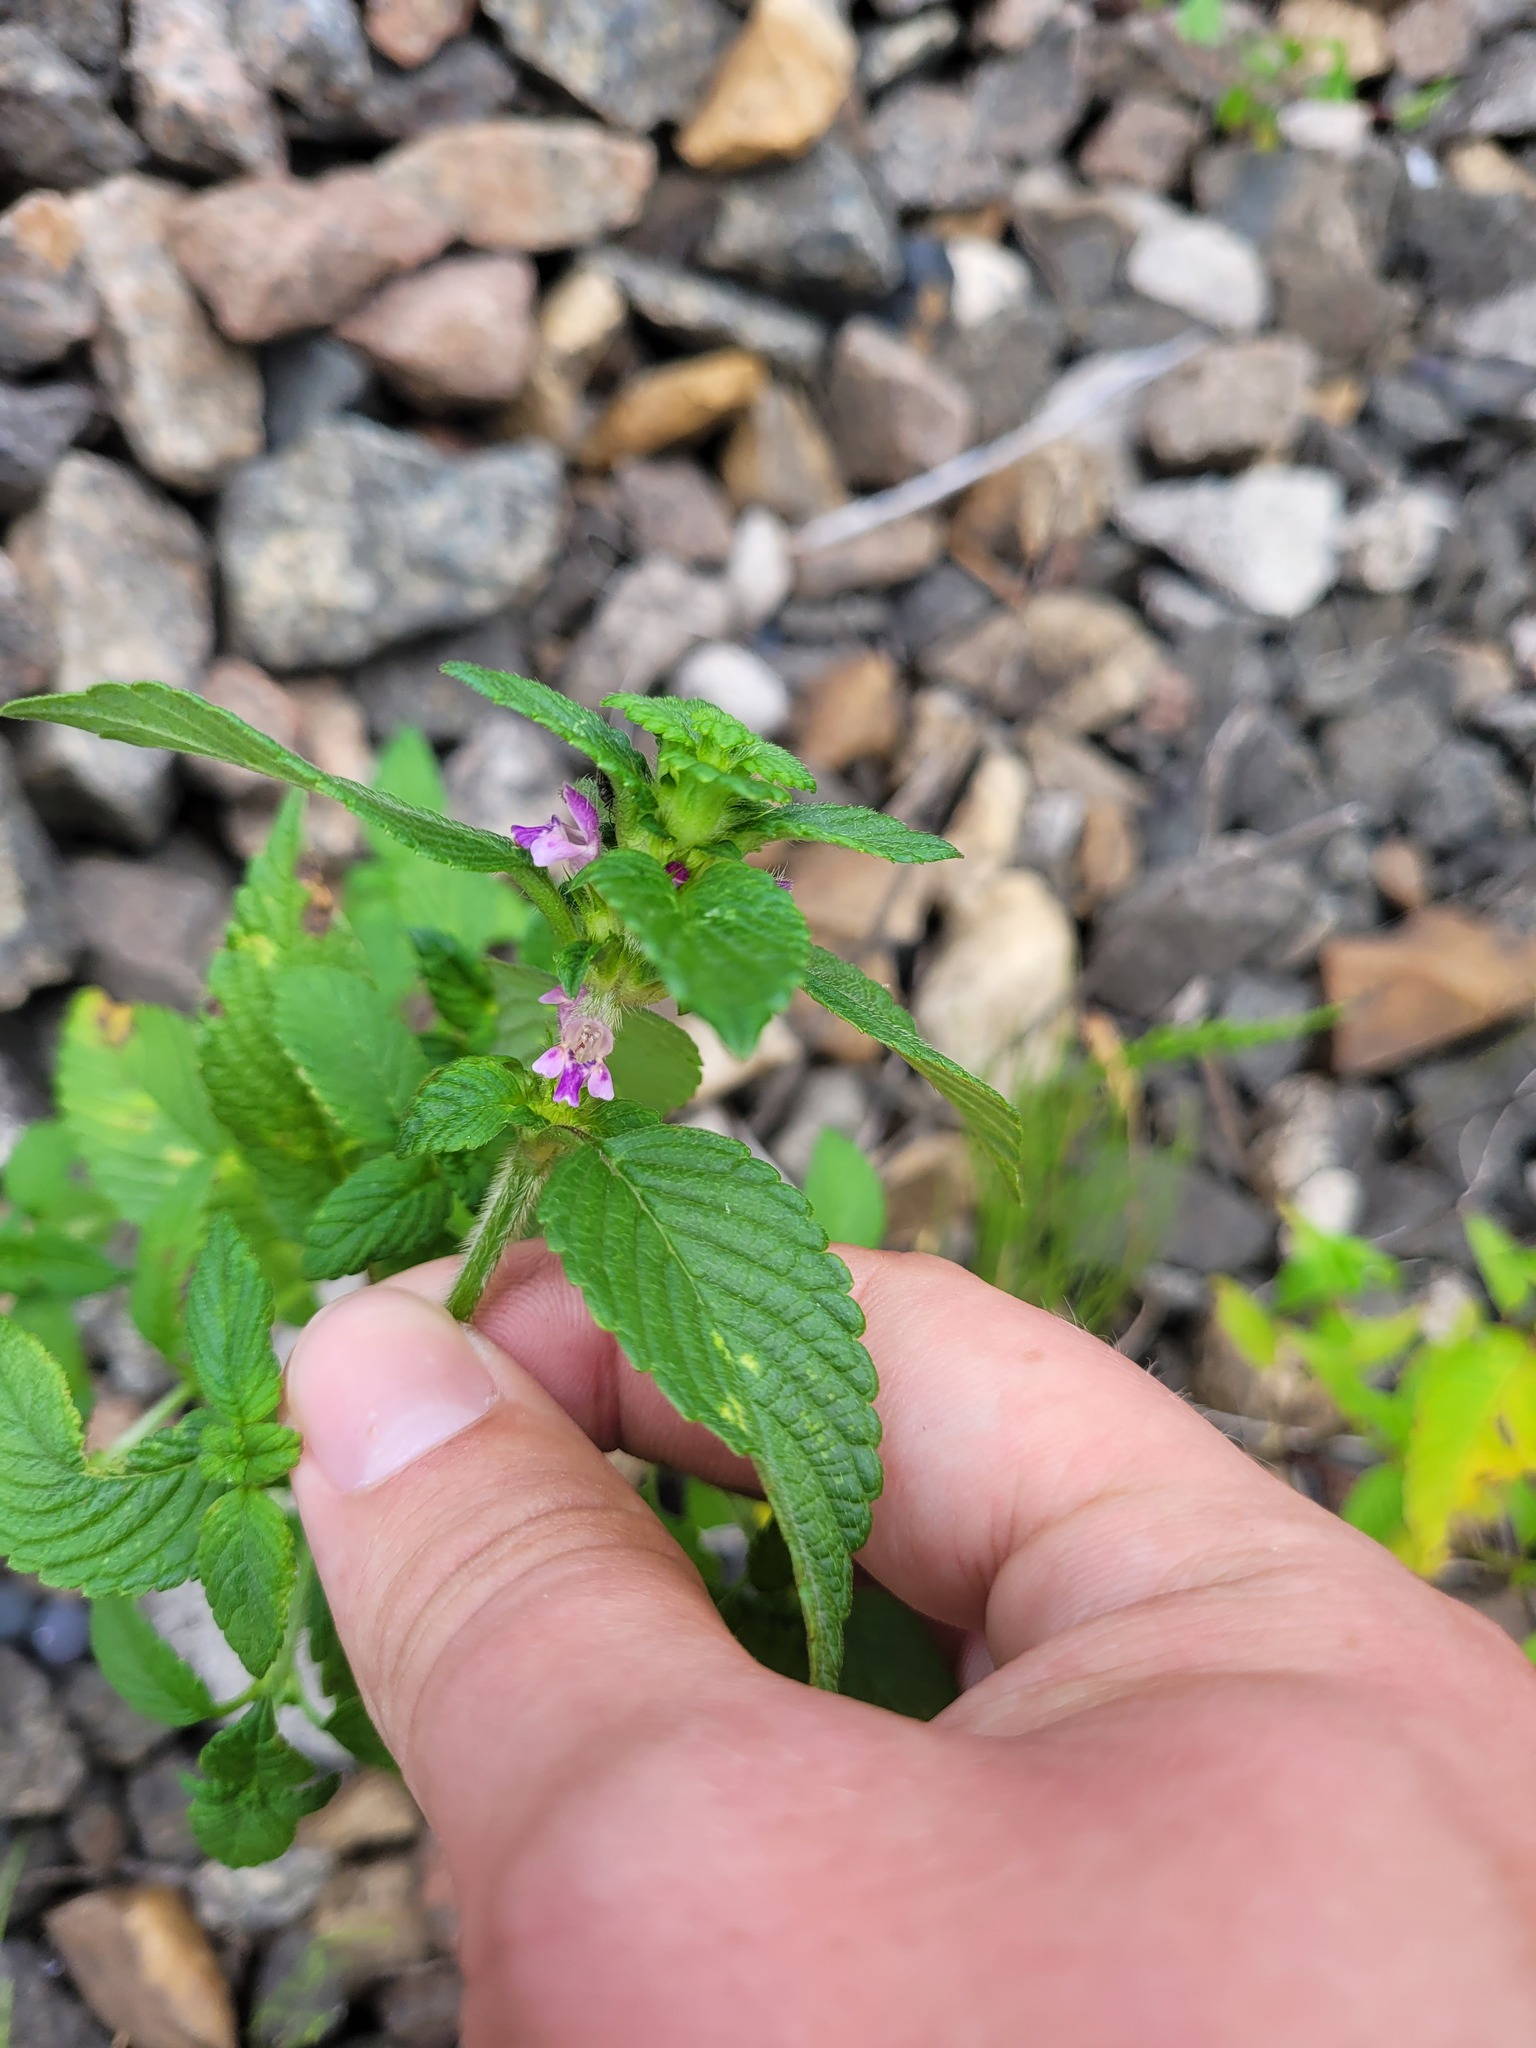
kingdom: Plantae
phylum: Tracheophyta
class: Magnoliopsida
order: Lamiales
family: Lamiaceae
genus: Galeopsis
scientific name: Galeopsis bifida
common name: Bifid hemp-nettle
